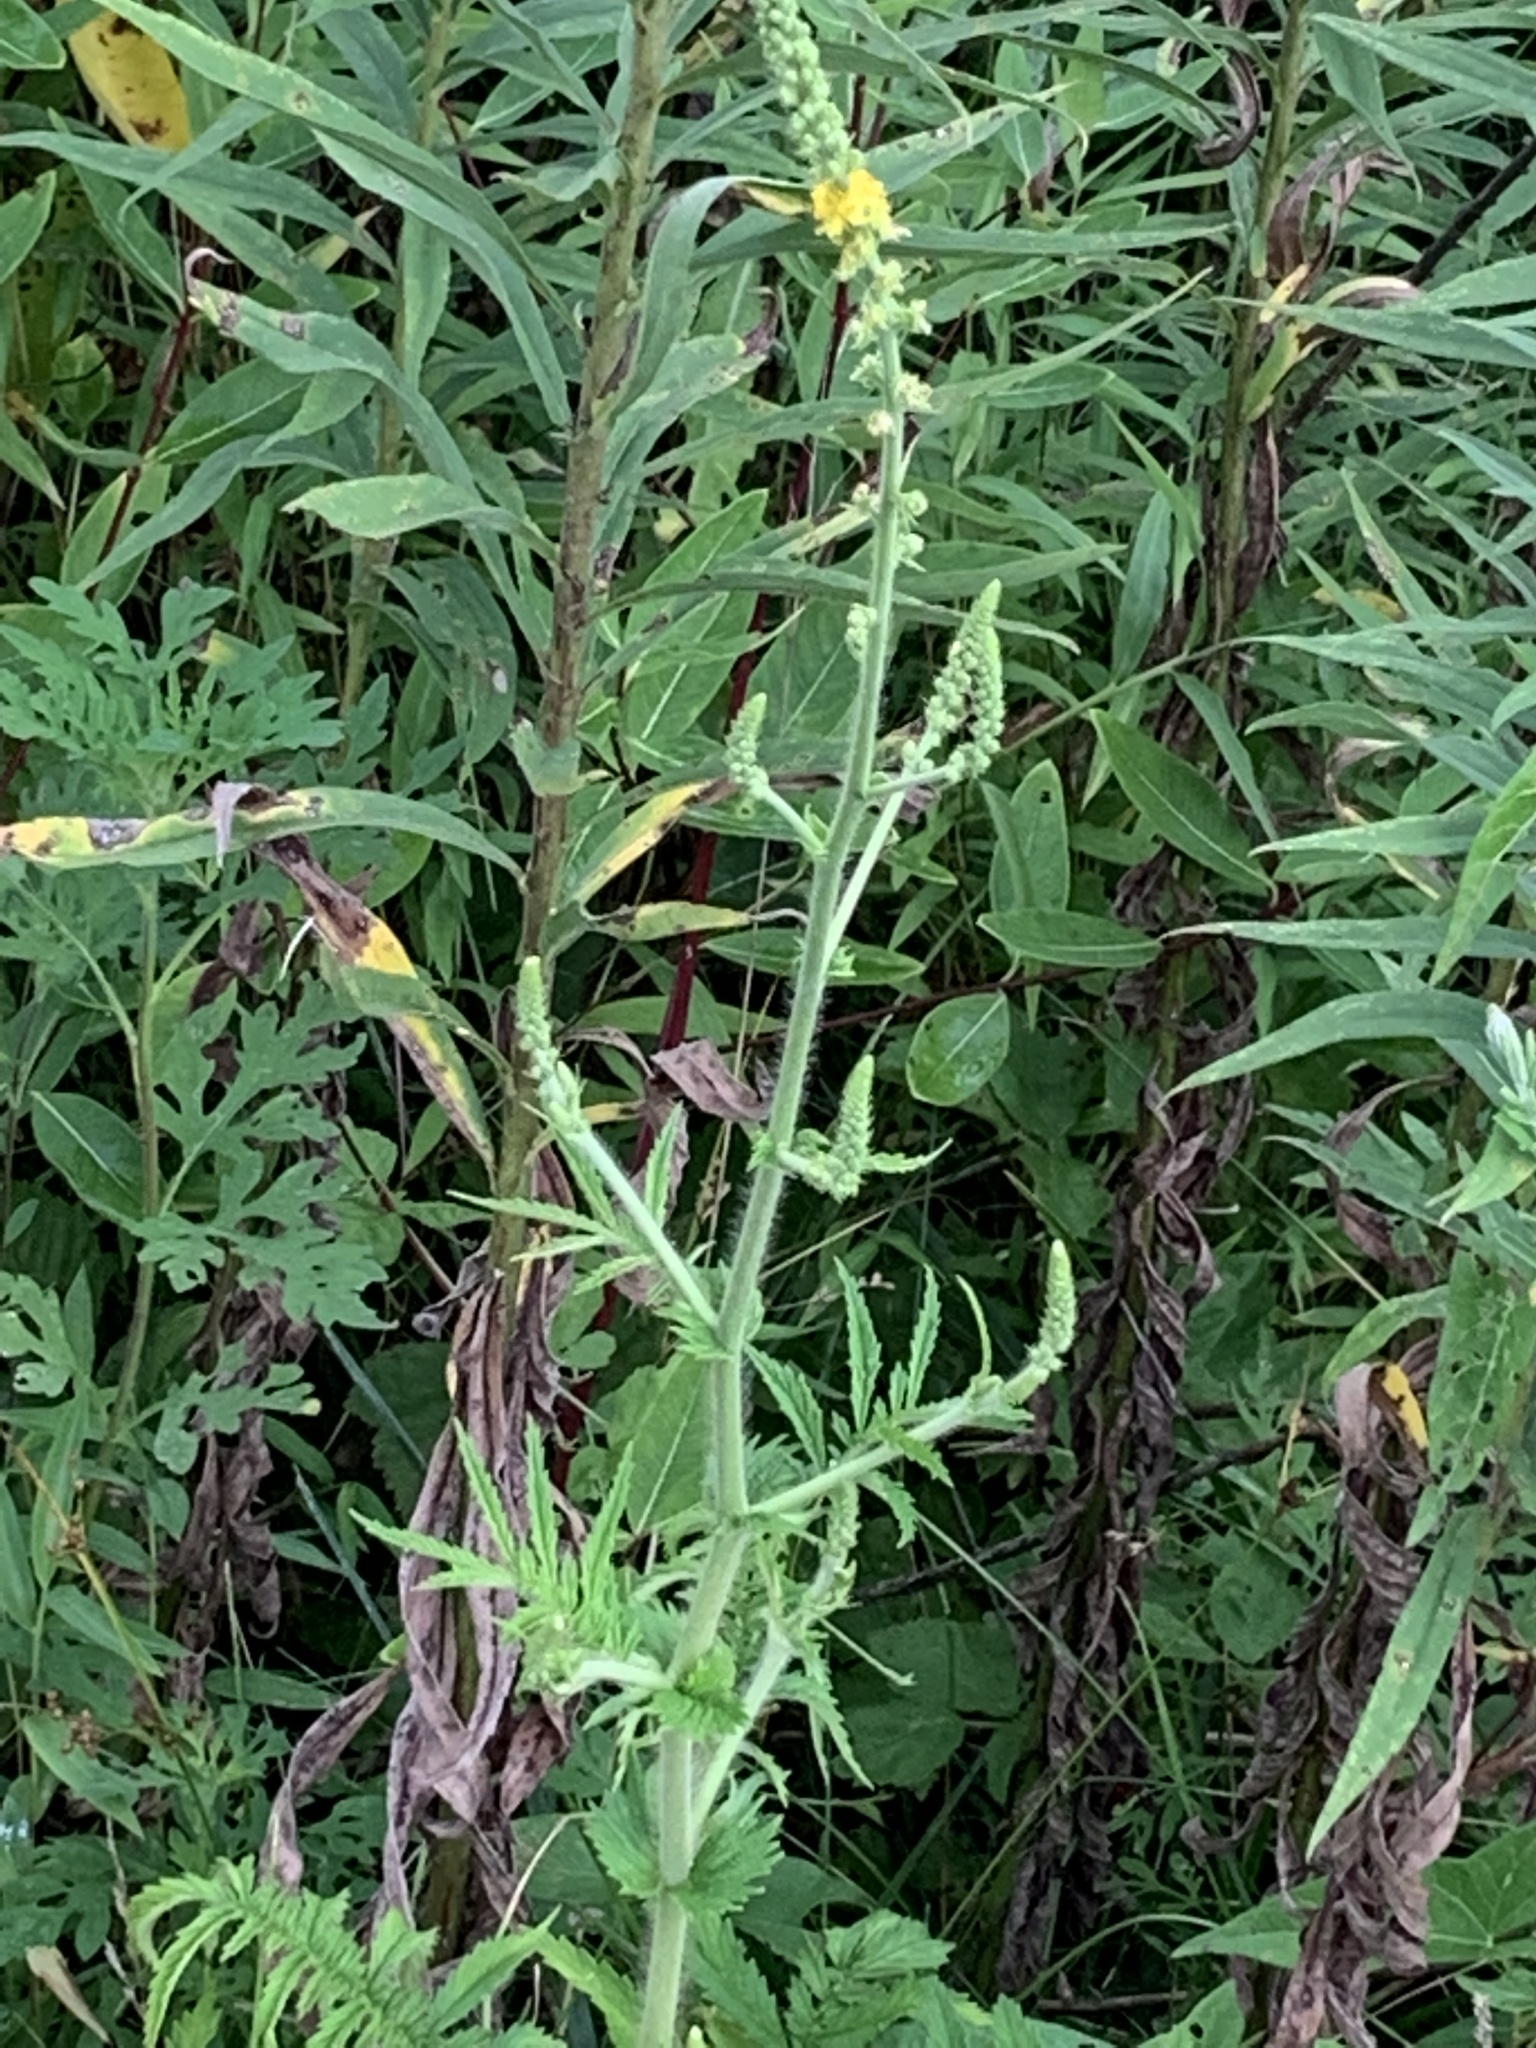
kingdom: Plantae
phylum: Tracheophyta
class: Magnoliopsida
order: Rosales
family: Rosaceae
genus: Agrimonia
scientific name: Agrimonia parviflora
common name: Harvest-lice
